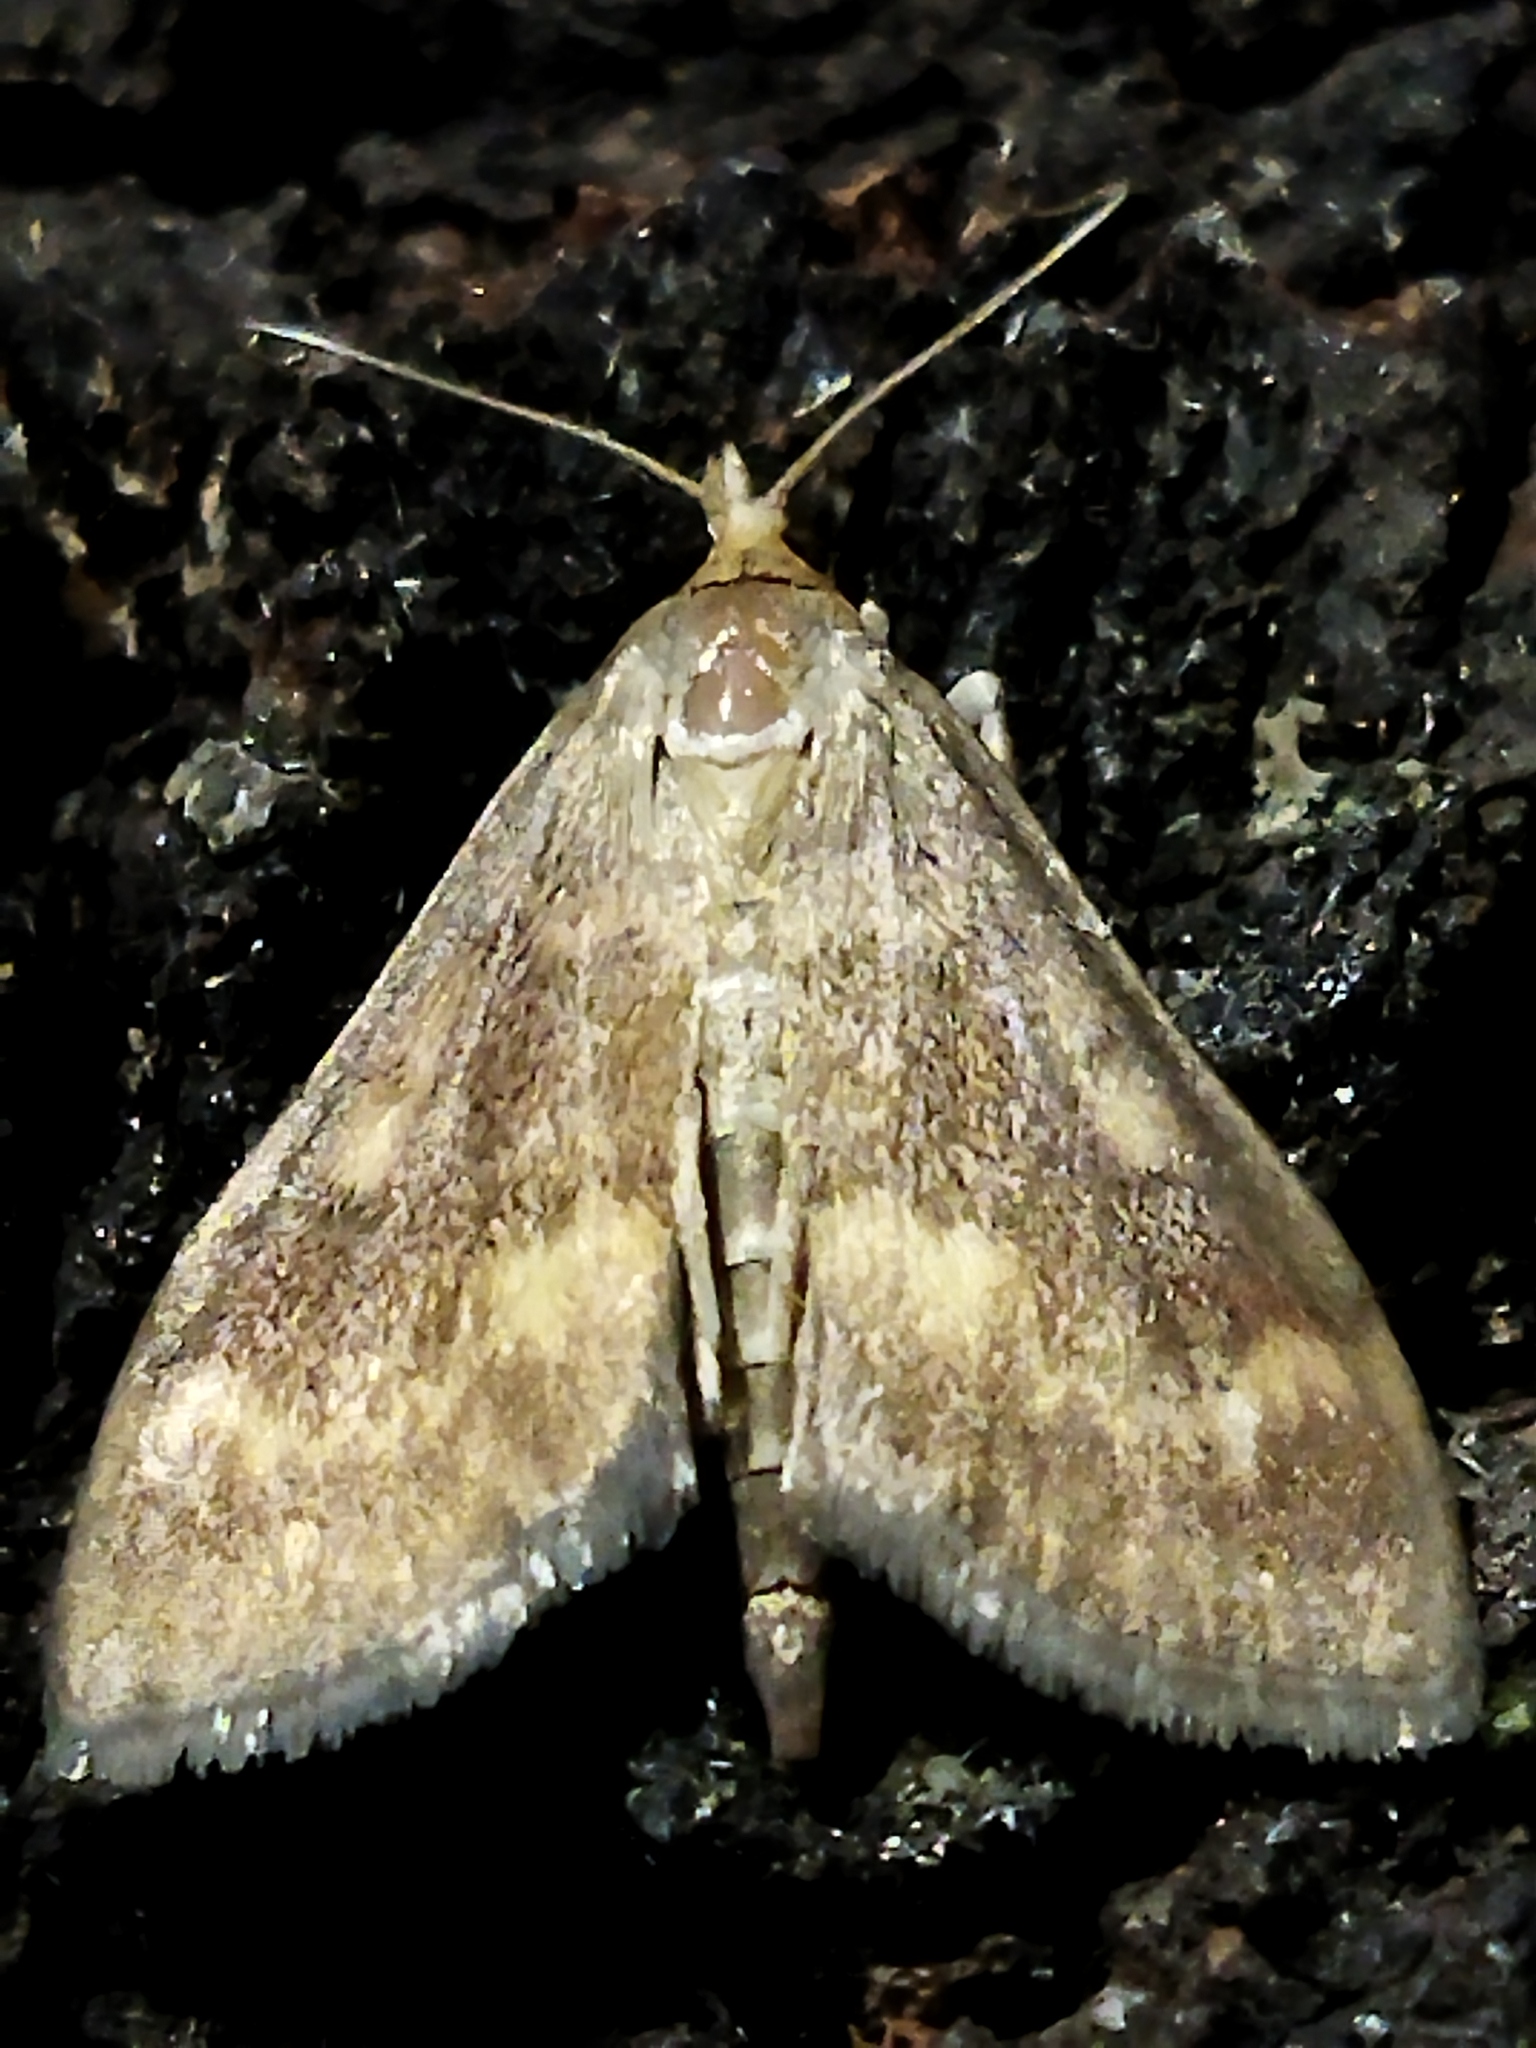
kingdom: Animalia
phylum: Arthropoda
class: Insecta
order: Lepidoptera
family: Crambidae
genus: Ostrinia
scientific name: Ostrinia nubilalis
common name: European corn borer
